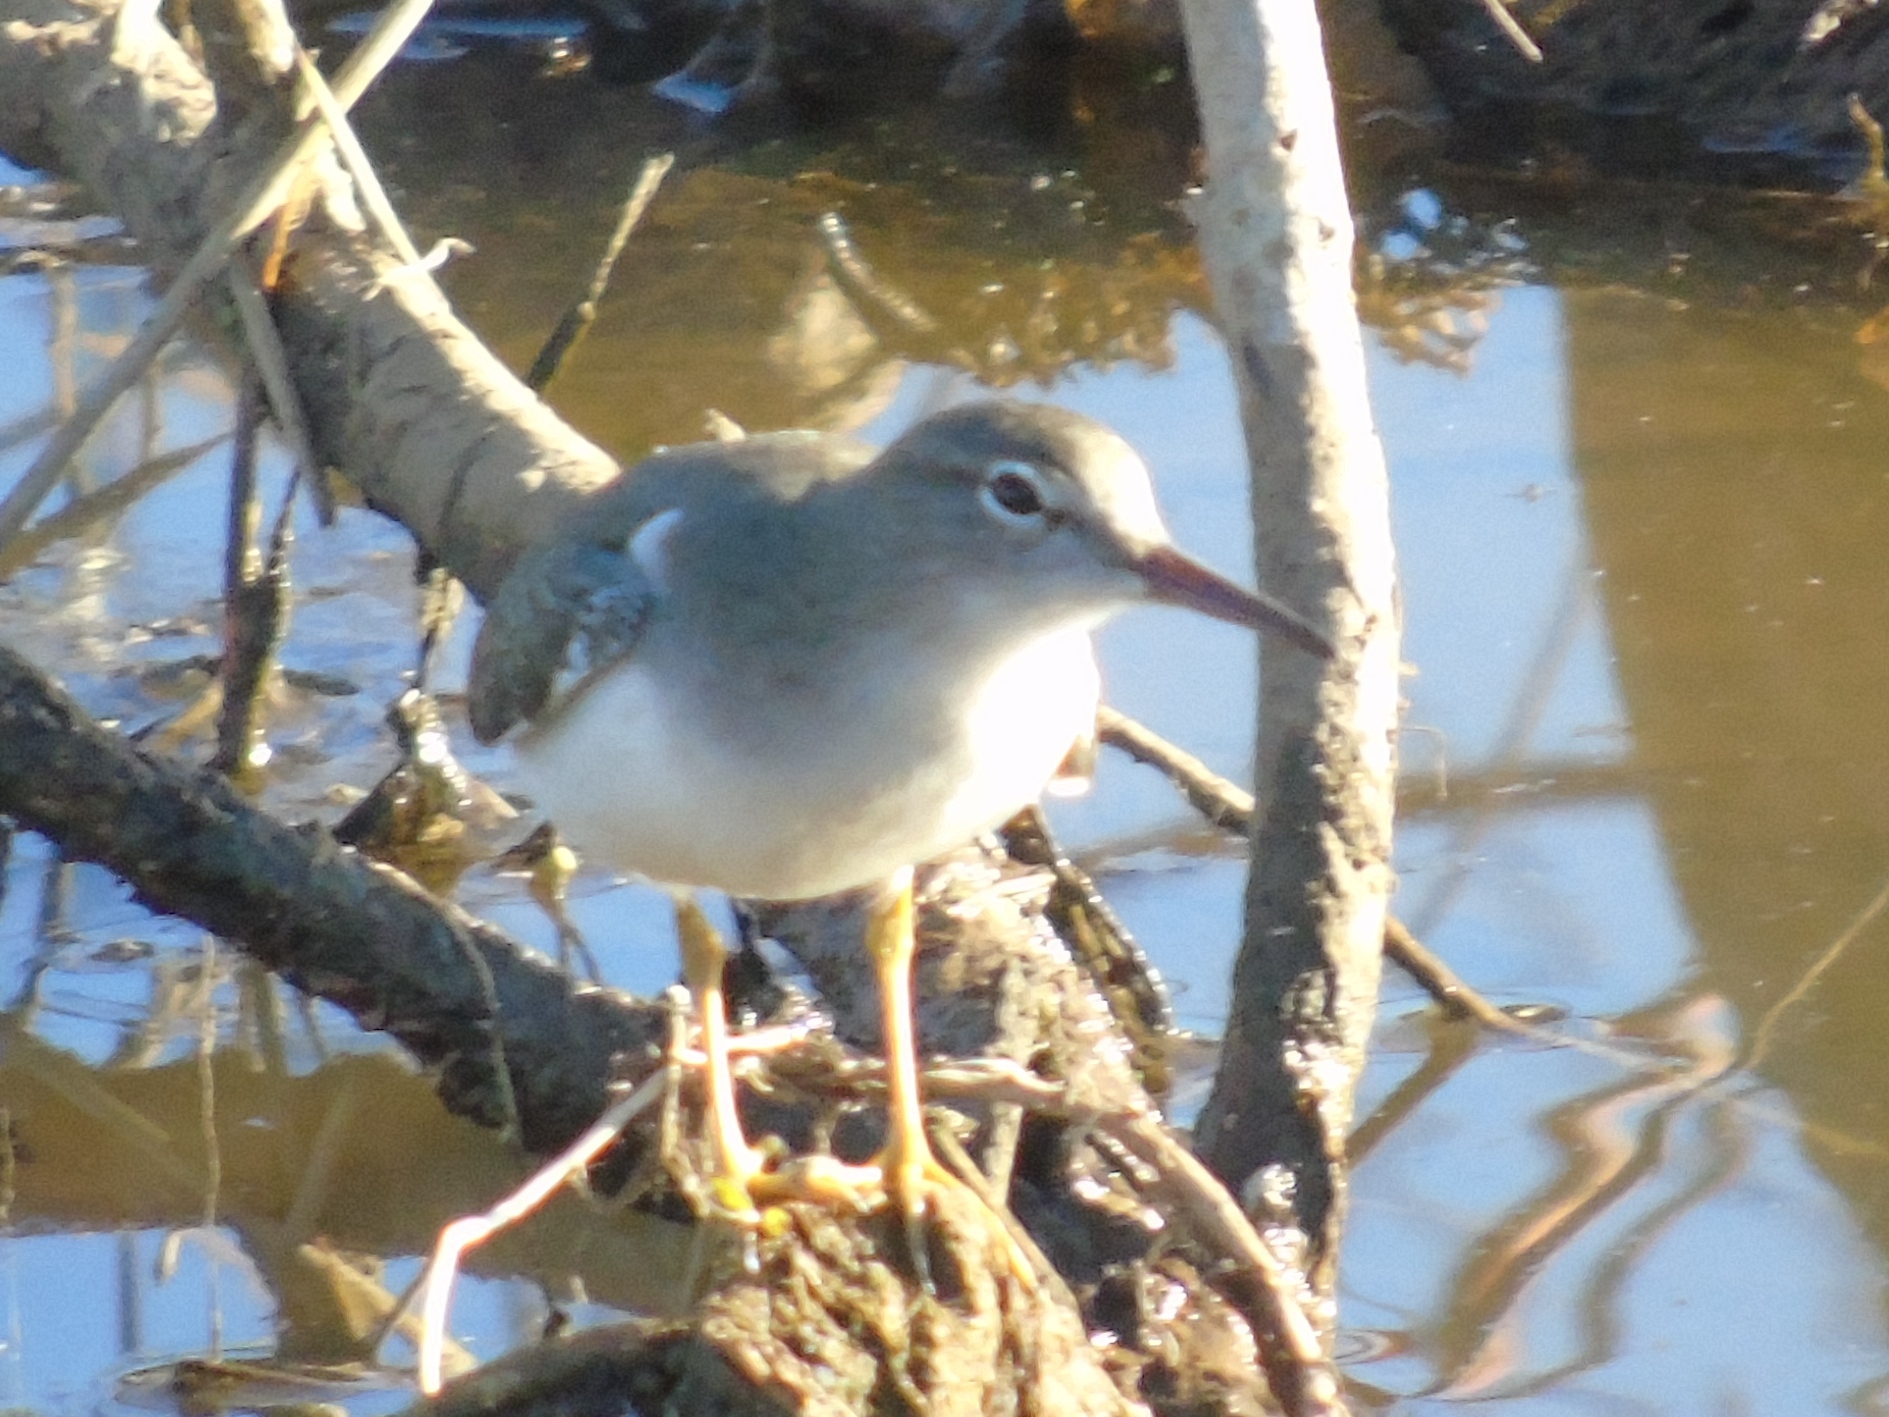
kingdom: Animalia
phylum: Chordata
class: Aves
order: Charadriiformes
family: Scolopacidae
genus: Actitis
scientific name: Actitis macularius
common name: Spotted sandpiper
